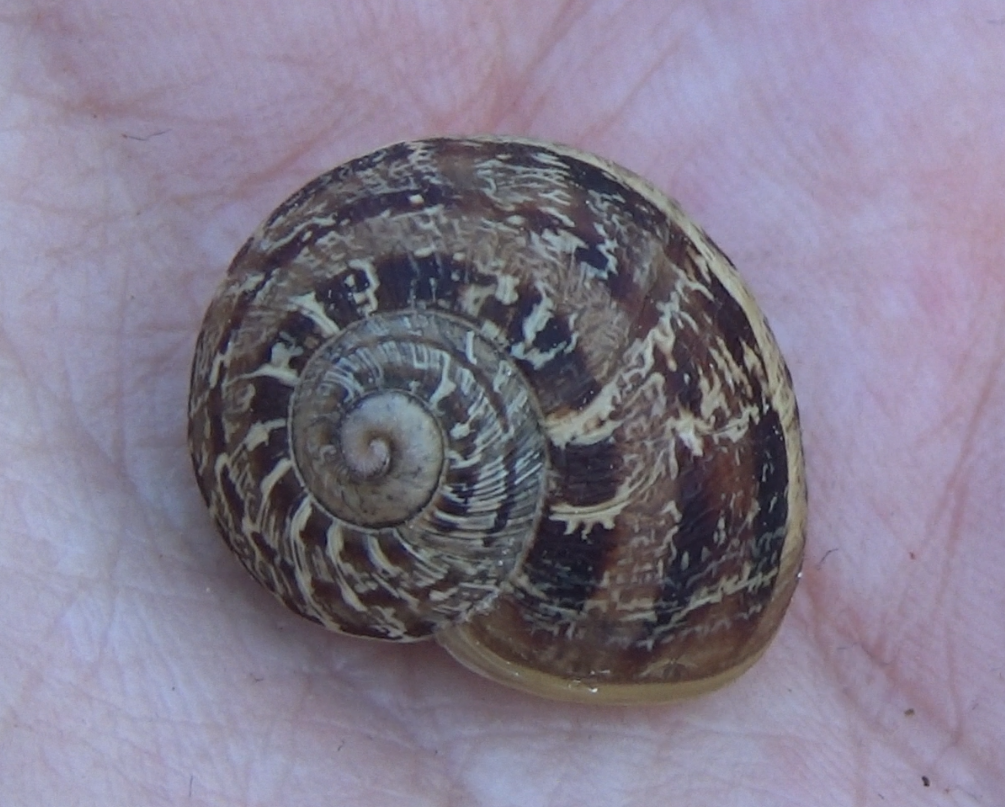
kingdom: Animalia
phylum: Mollusca
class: Gastropoda
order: Stylommatophora
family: Helicidae
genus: Cornu
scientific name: Cornu aspersum
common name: Brown garden snail
